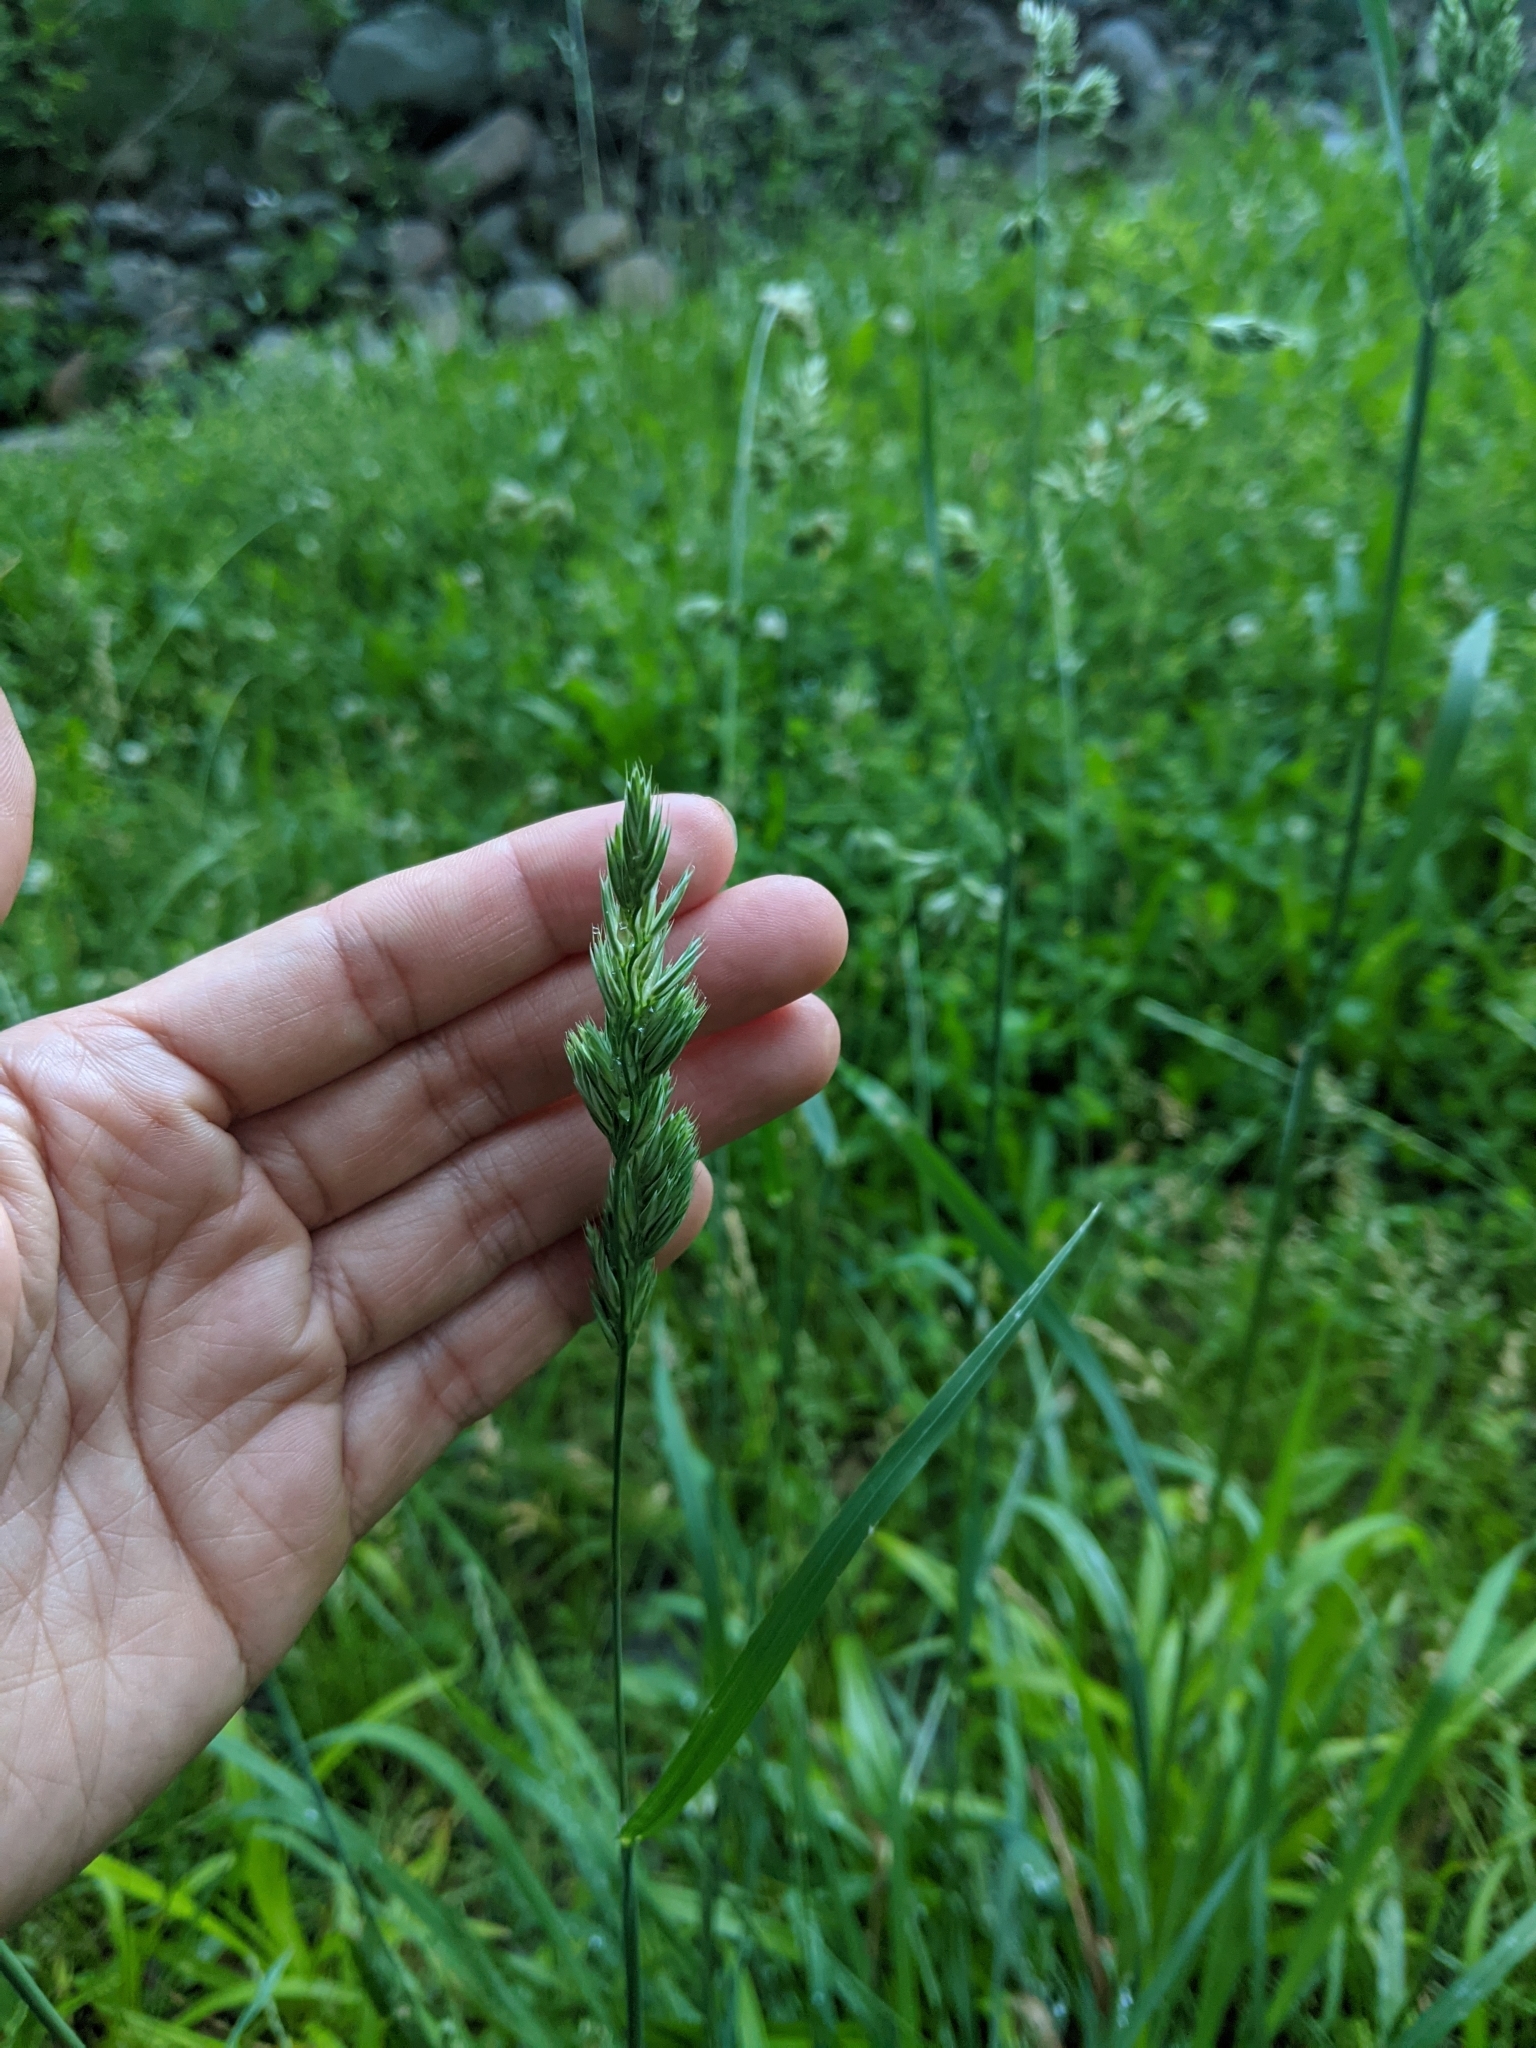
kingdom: Plantae
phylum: Tracheophyta
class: Liliopsida
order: Poales
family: Poaceae
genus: Dactylis
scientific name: Dactylis glomerata
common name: Orchardgrass
